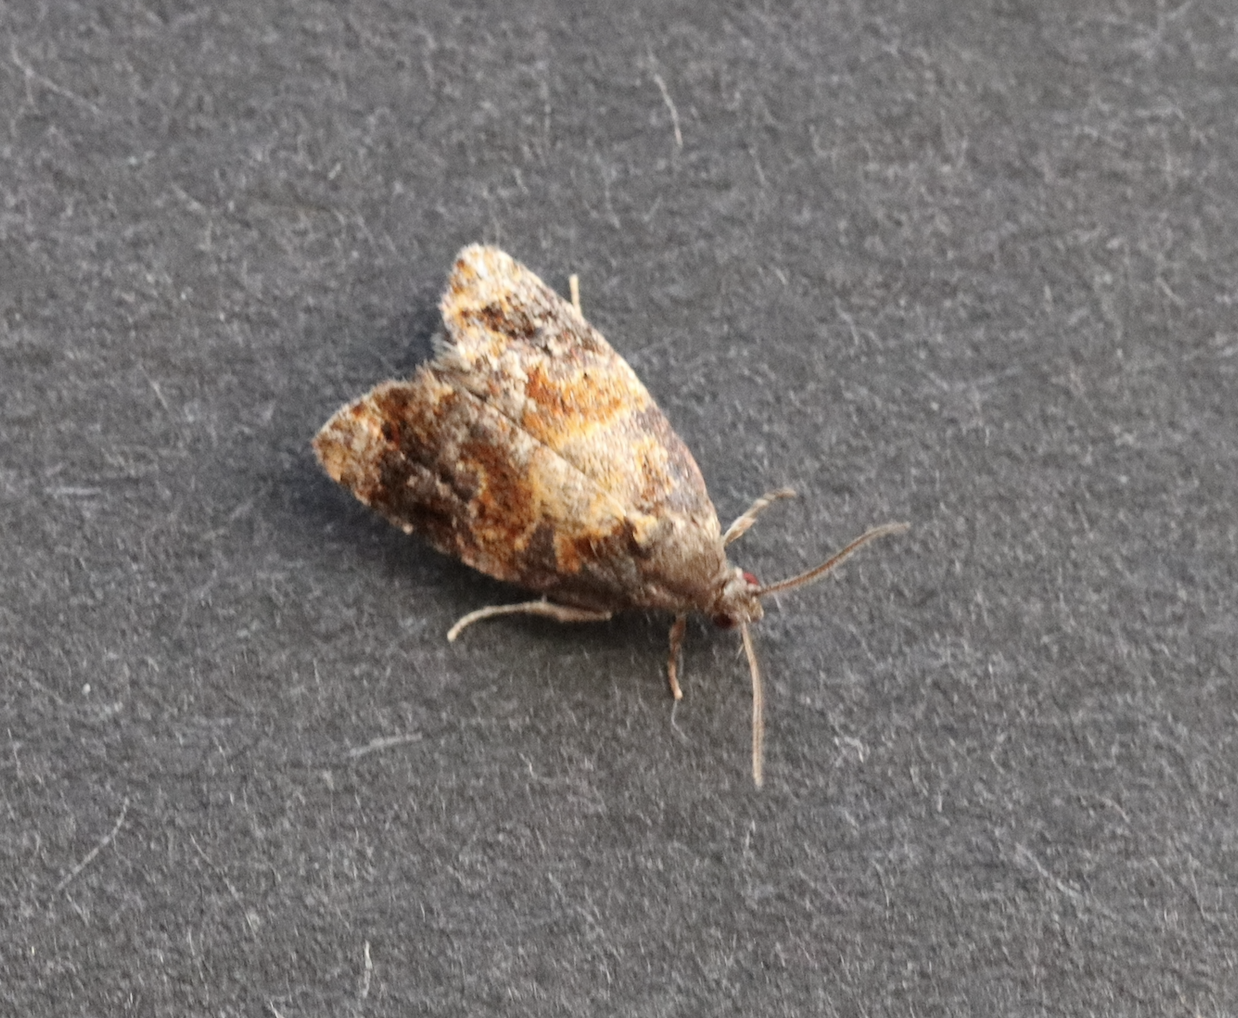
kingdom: Animalia
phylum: Arthropoda
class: Insecta
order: Lepidoptera
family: Tortricidae
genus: Ditula
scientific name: Ditula angustiorana
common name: Red-barred tortrix
